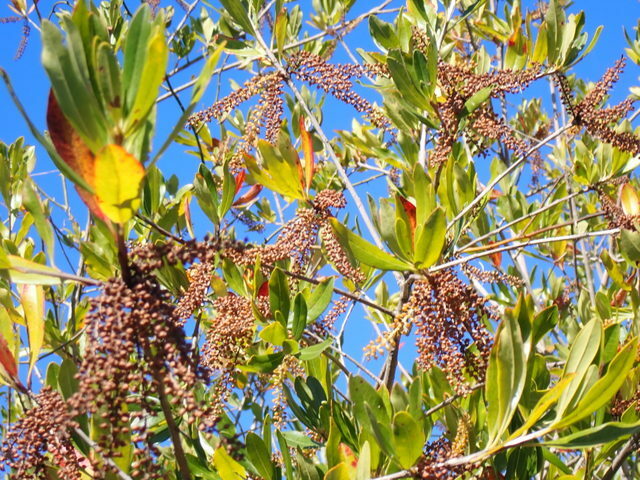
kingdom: Plantae
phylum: Tracheophyta
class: Magnoliopsida
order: Ericales
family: Cyrillaceae
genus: Cyrilla
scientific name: Cyrilla racemiflora
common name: Black titi
